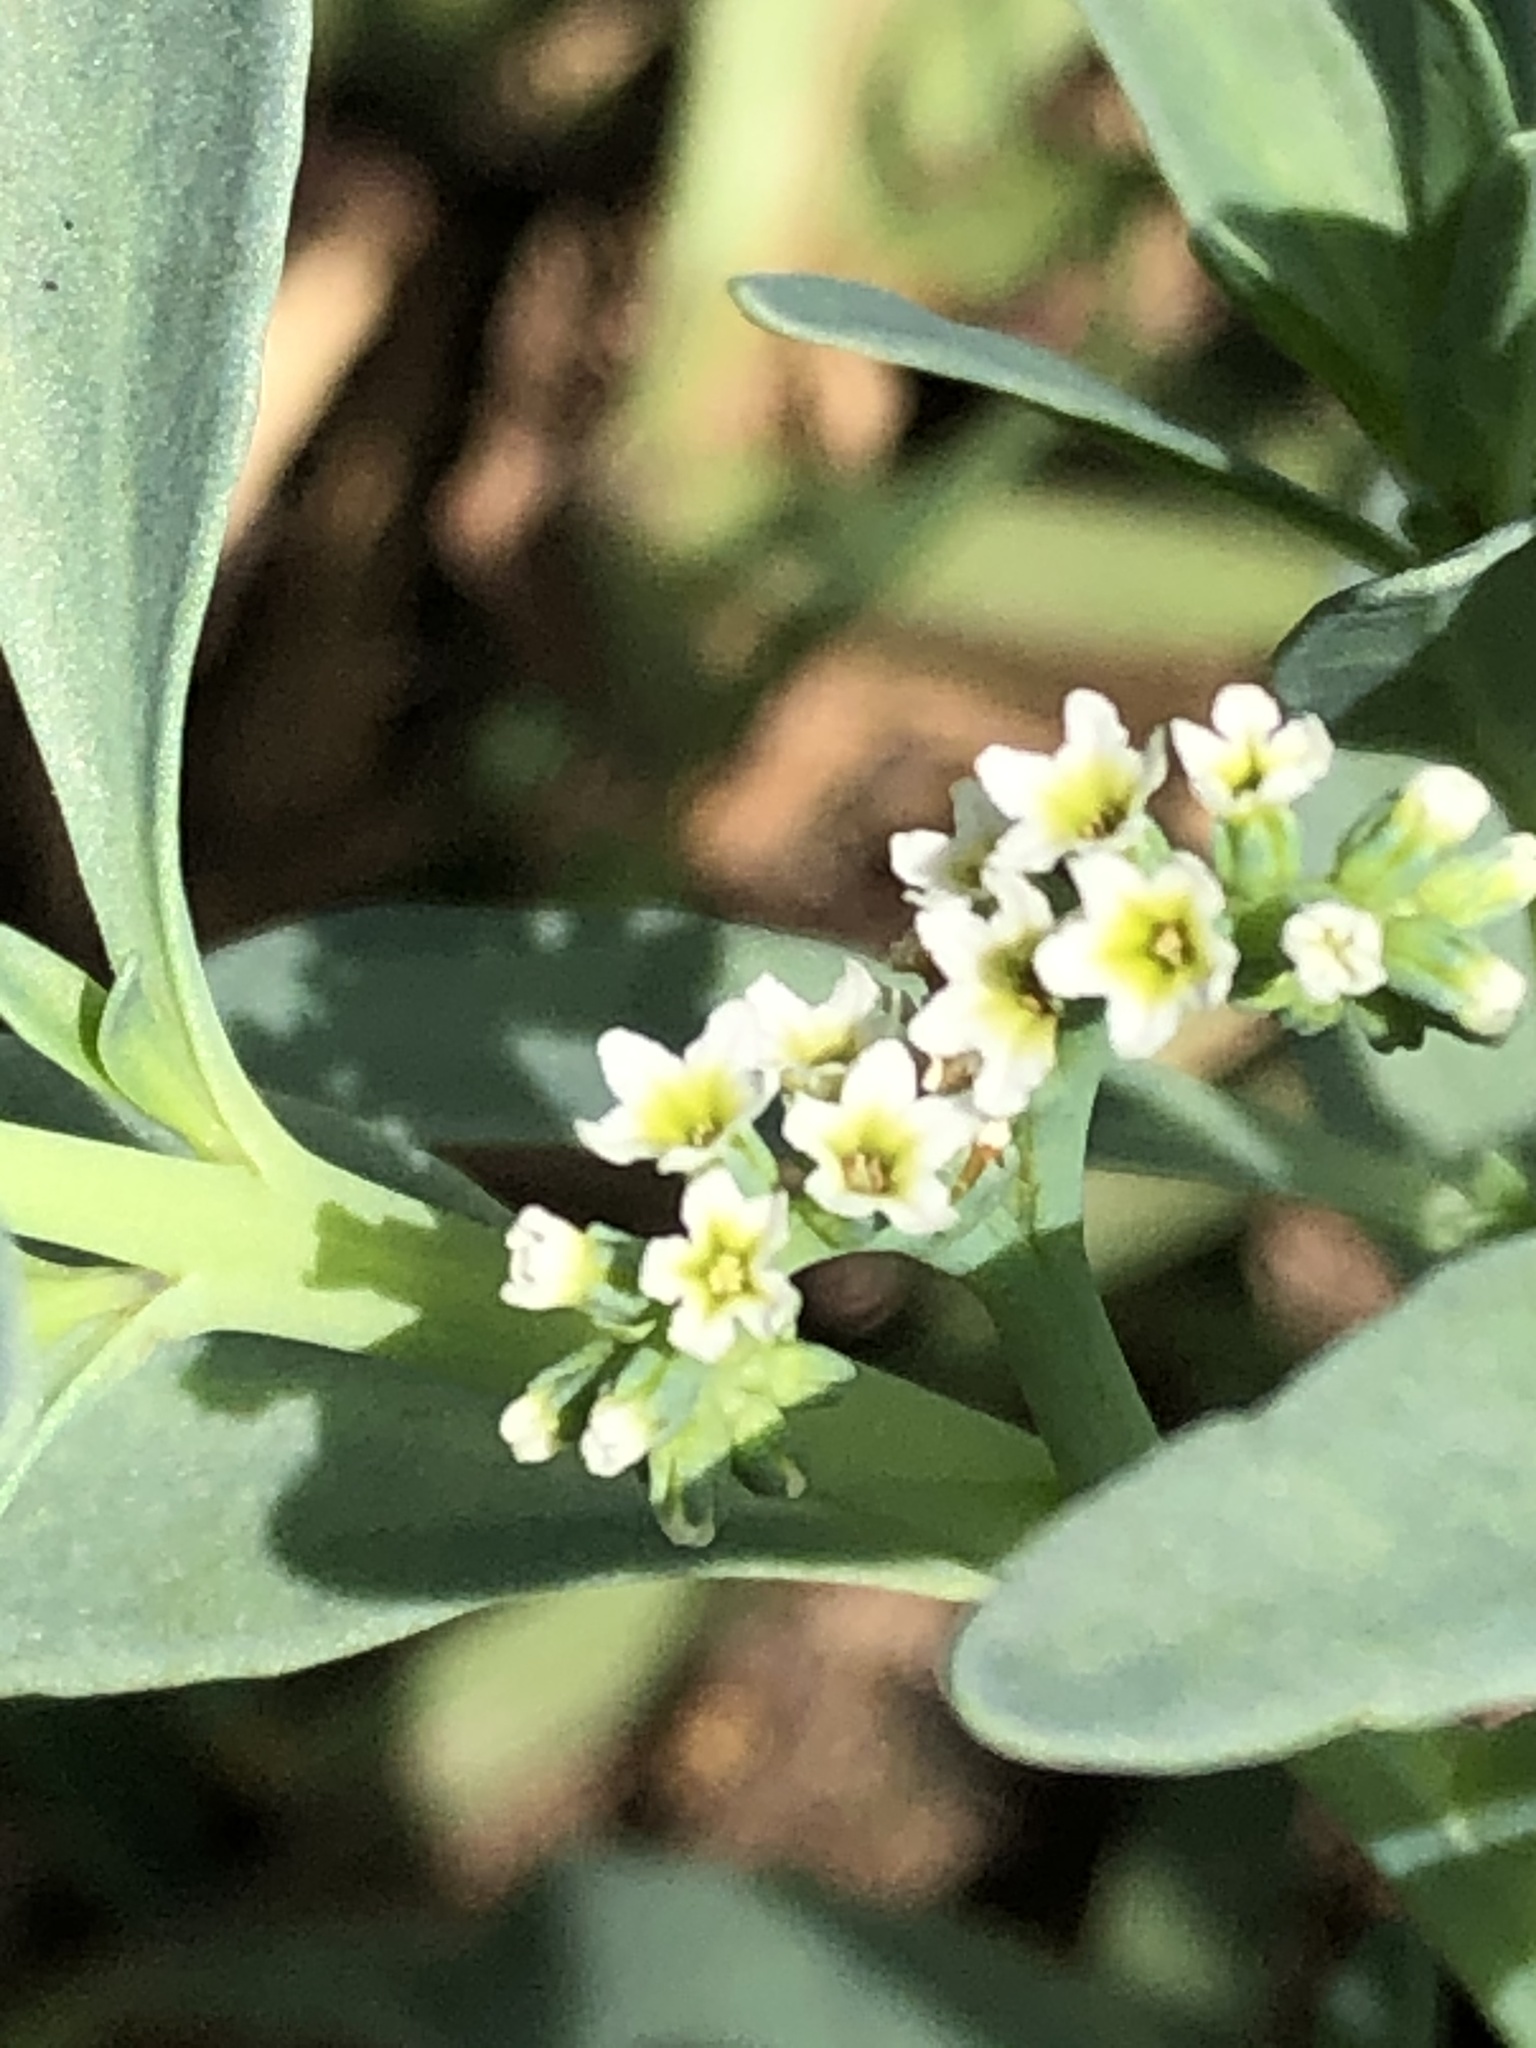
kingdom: Plantae
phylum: Tracheophyta
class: Magnoliopsida
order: Boraginales
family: Heliotropiaceae
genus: Heliotropium
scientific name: Heliotropium curassavicum
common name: Seaside heliotrope
